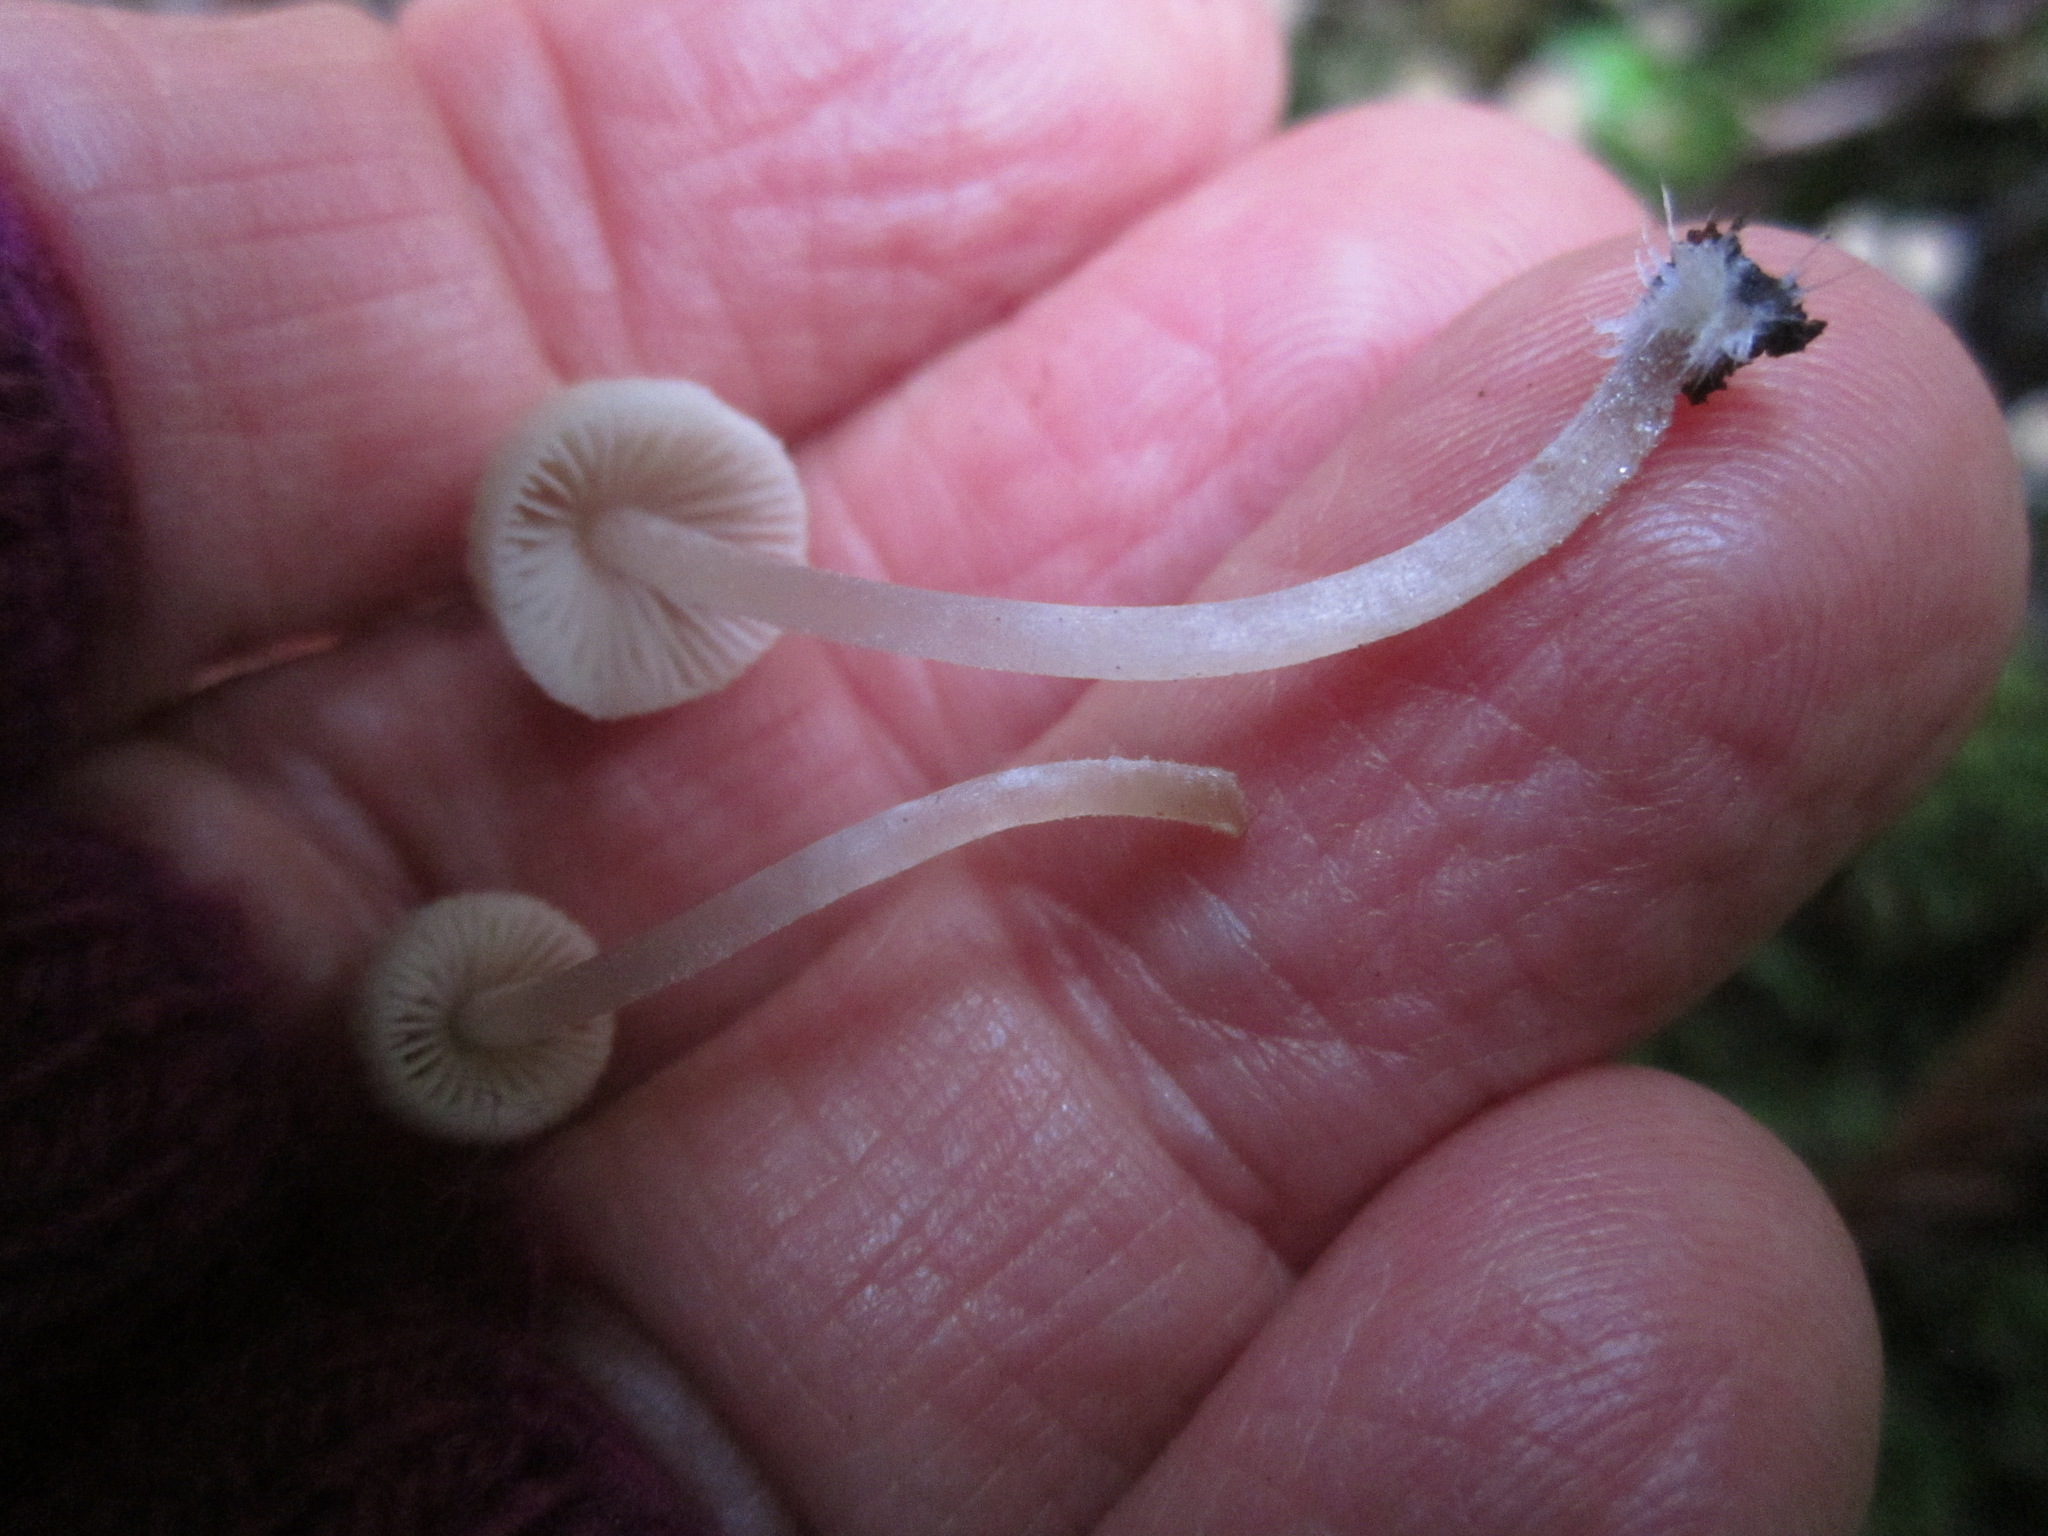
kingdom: Fungi
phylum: Basidiomycota
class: Agaricomycetes
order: Agaricales
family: Psathyrellaceae
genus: Coprinellus
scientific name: Coprinellus disseminatus
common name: Fairies' bonnets
